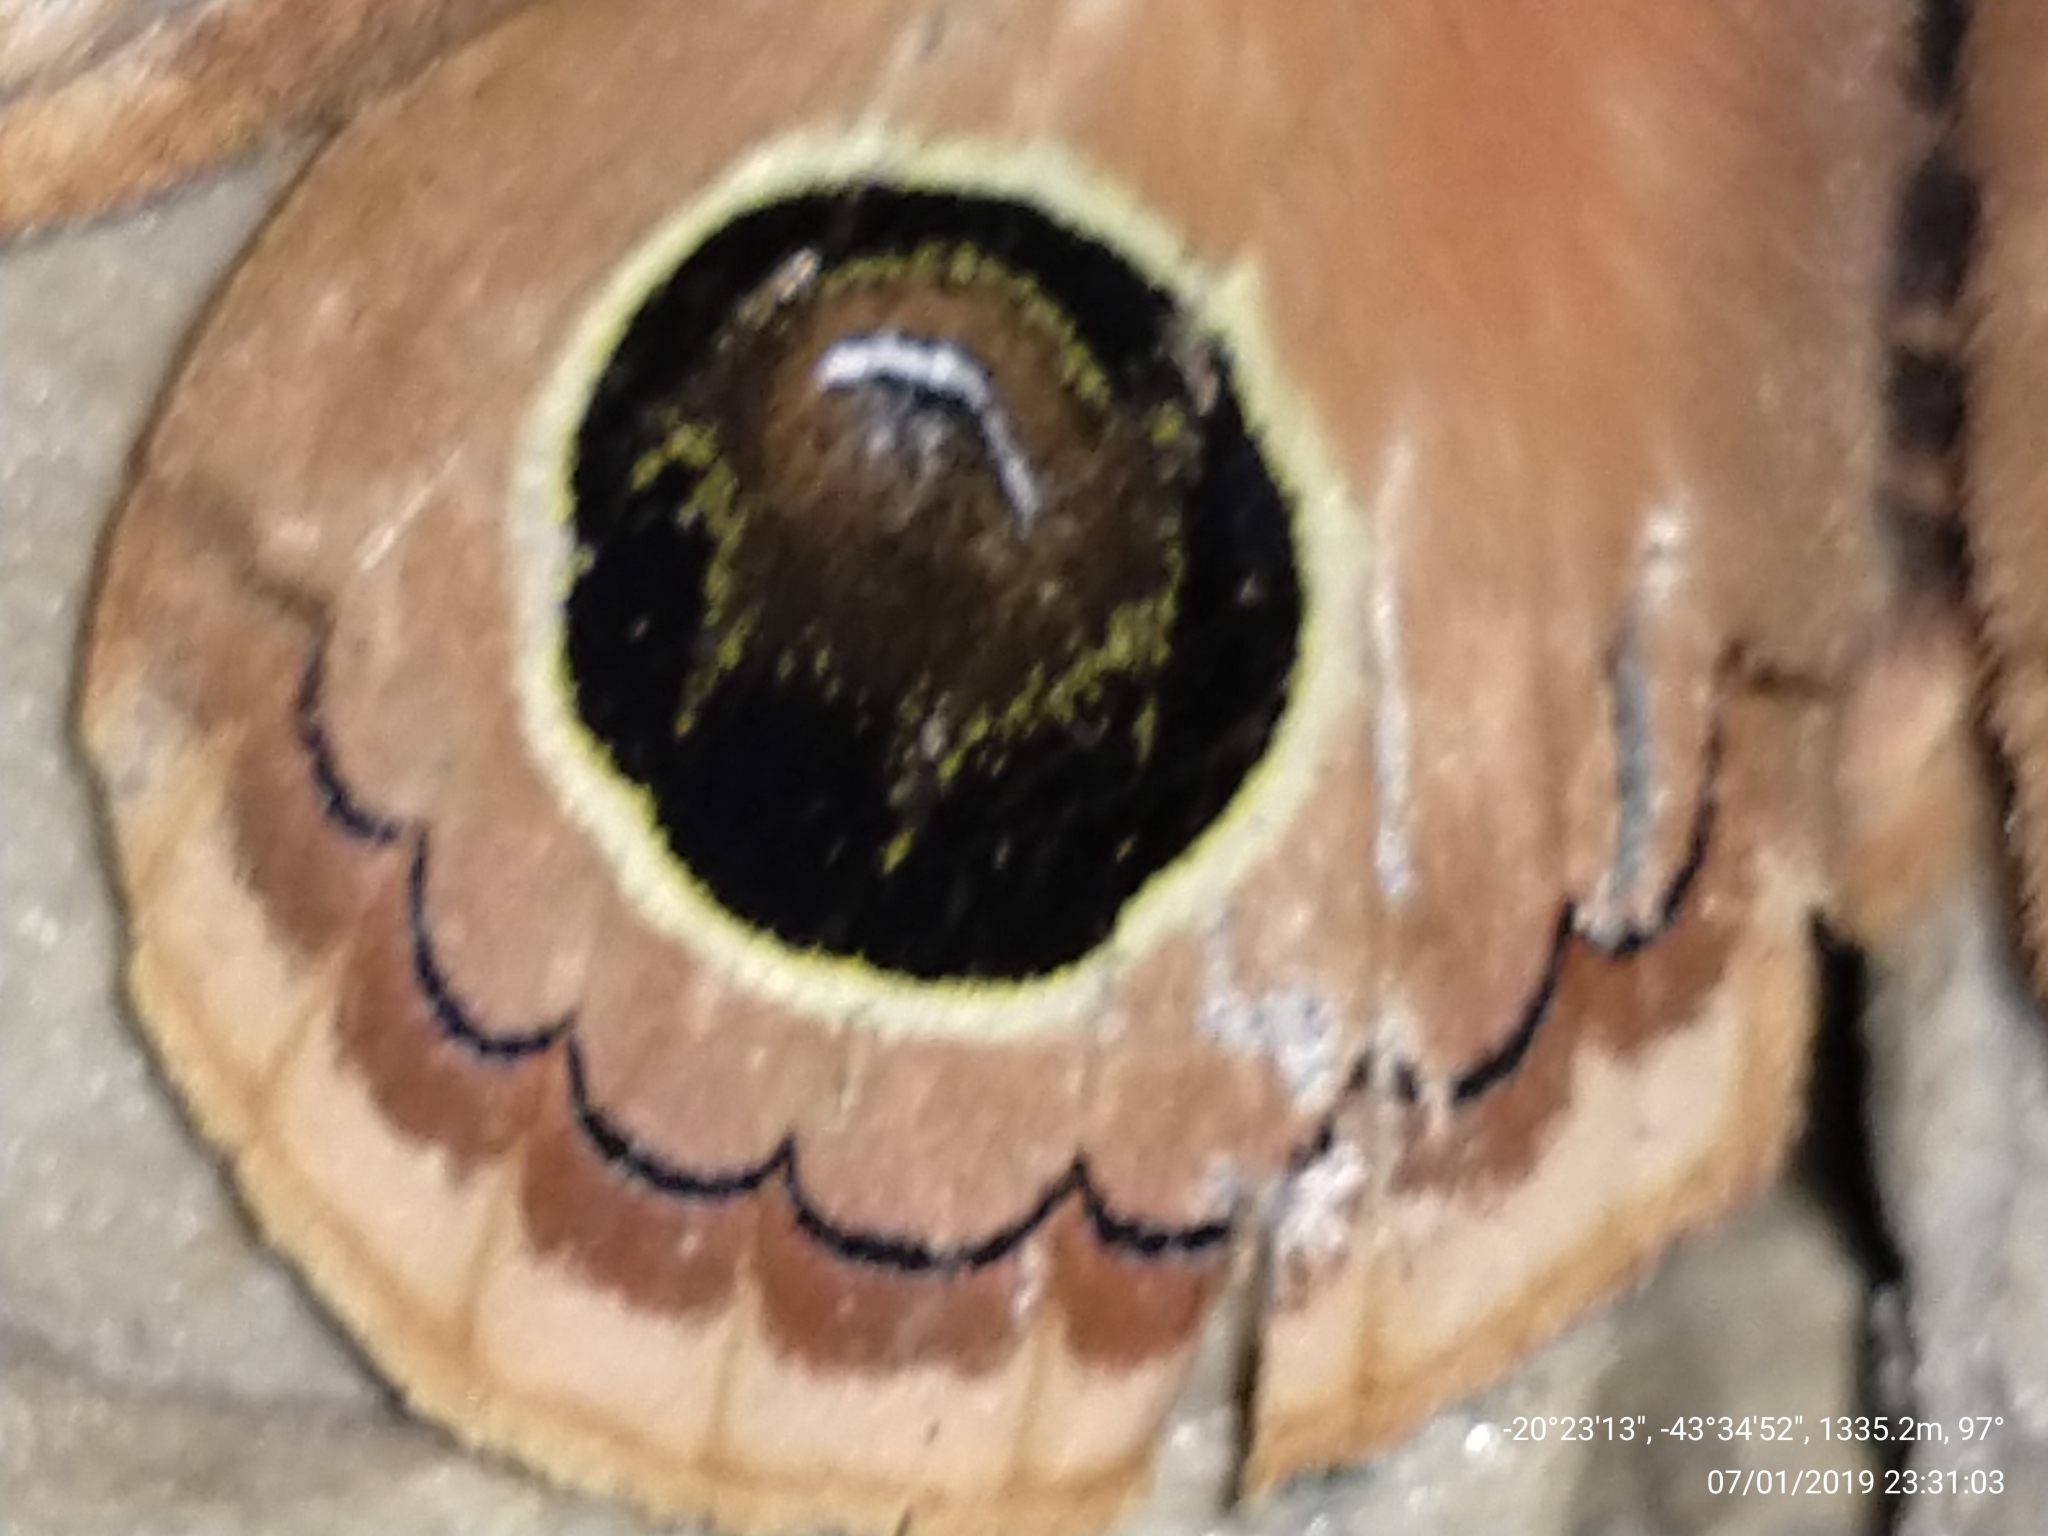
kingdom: Animalia
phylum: Arthropoda
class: Insecta
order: Lepidoptera
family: Saturniidae
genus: Pseudautomeris
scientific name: Pseudautomeris hubneri
